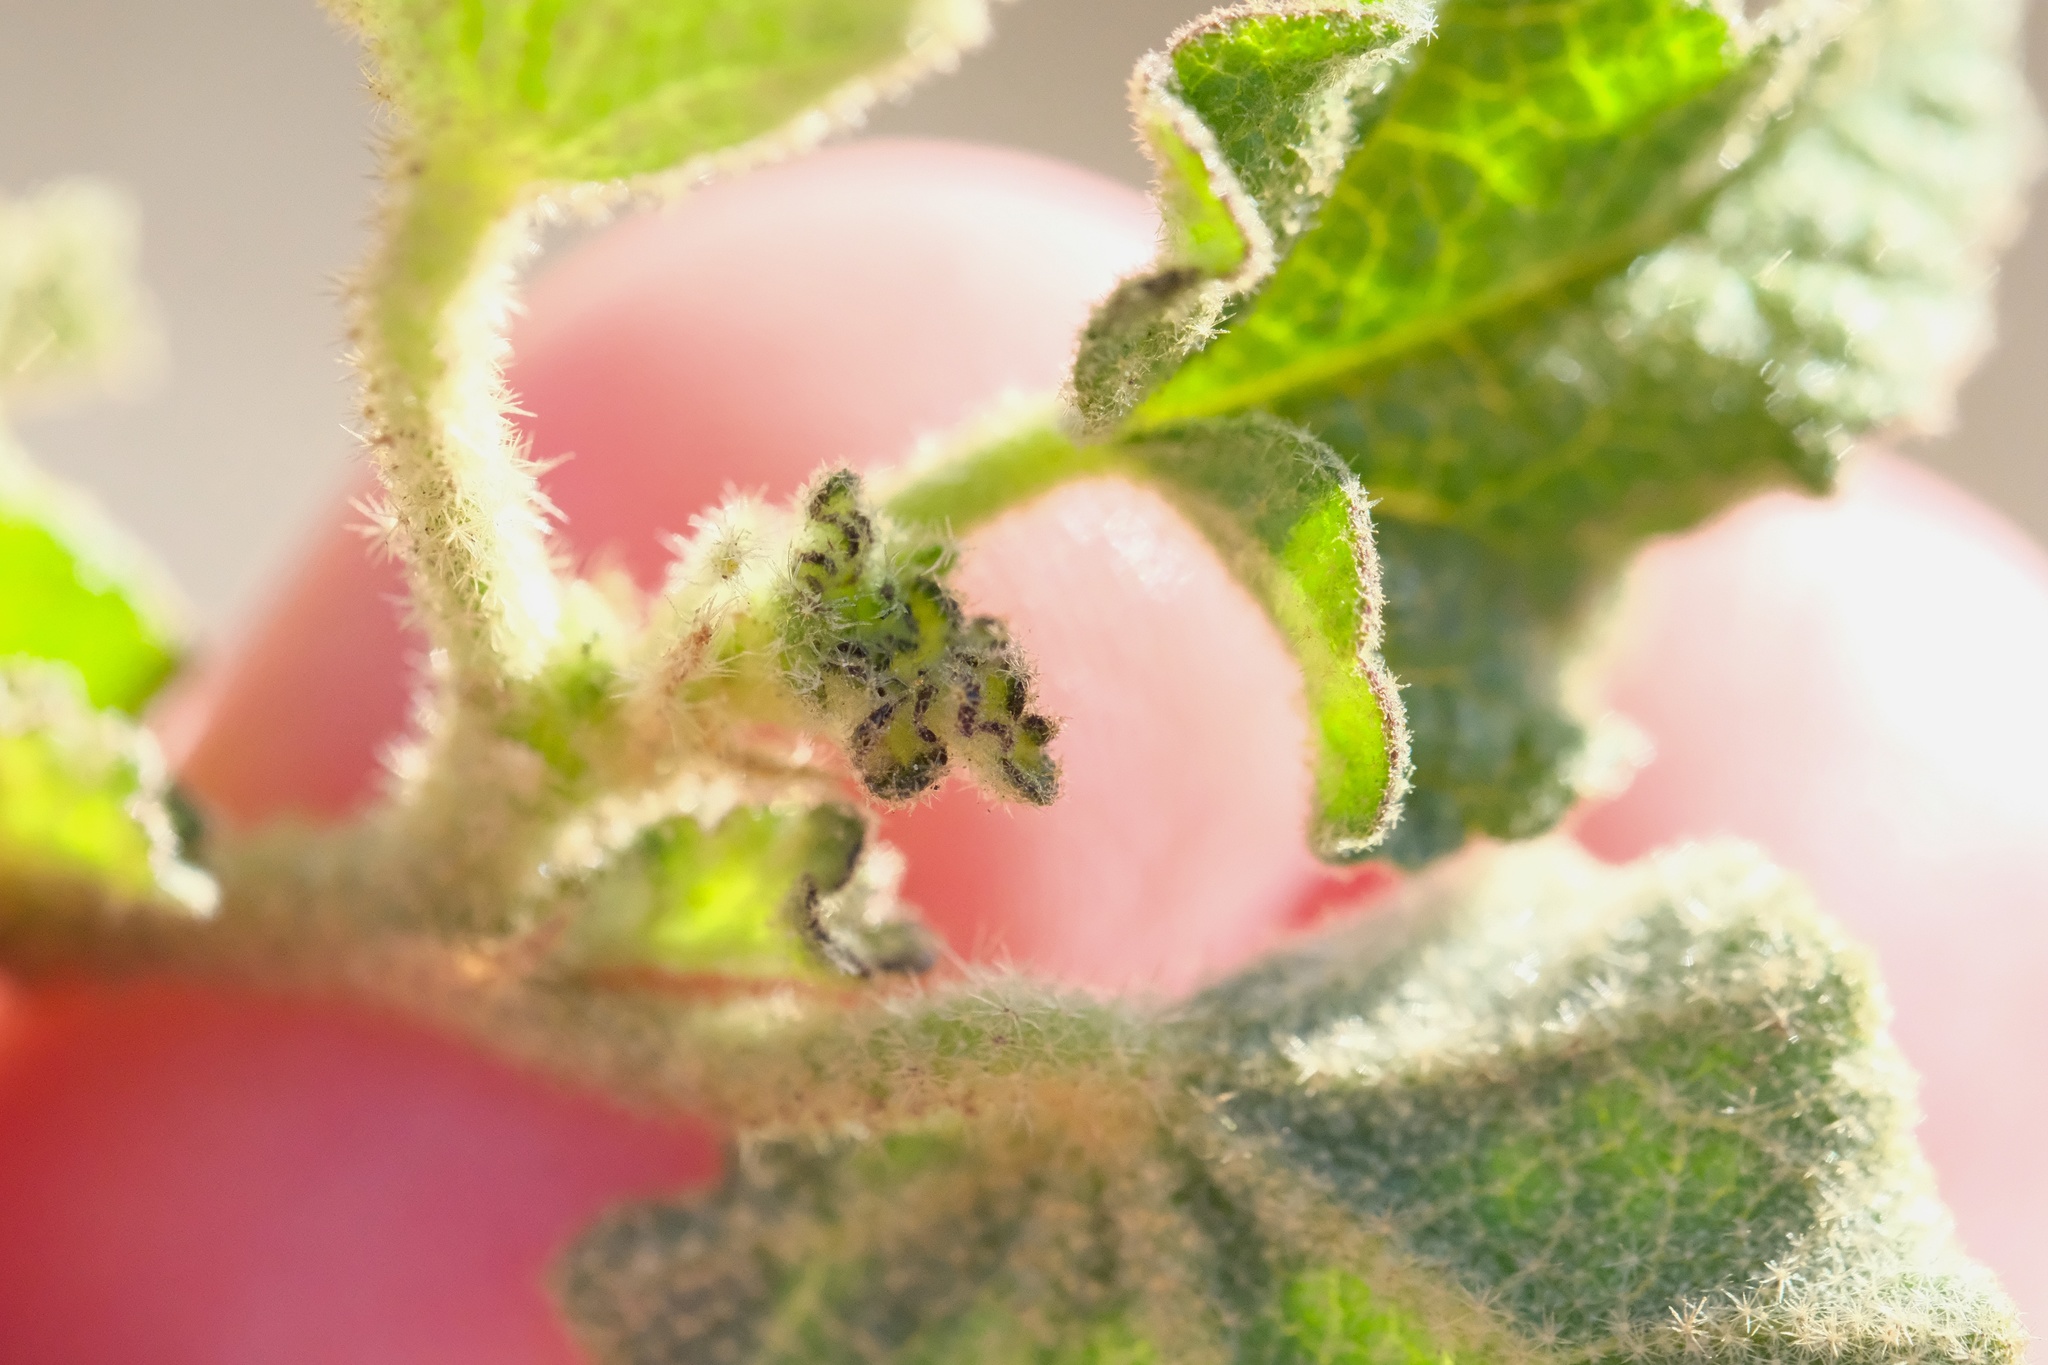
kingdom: Plantae
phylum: Tracheophyta
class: Magnoliopsida
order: Malvales
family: Malvaceae
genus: Malacothamnus
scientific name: Malacothamnus densiflorus
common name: Yellow-stem bush-mallow
